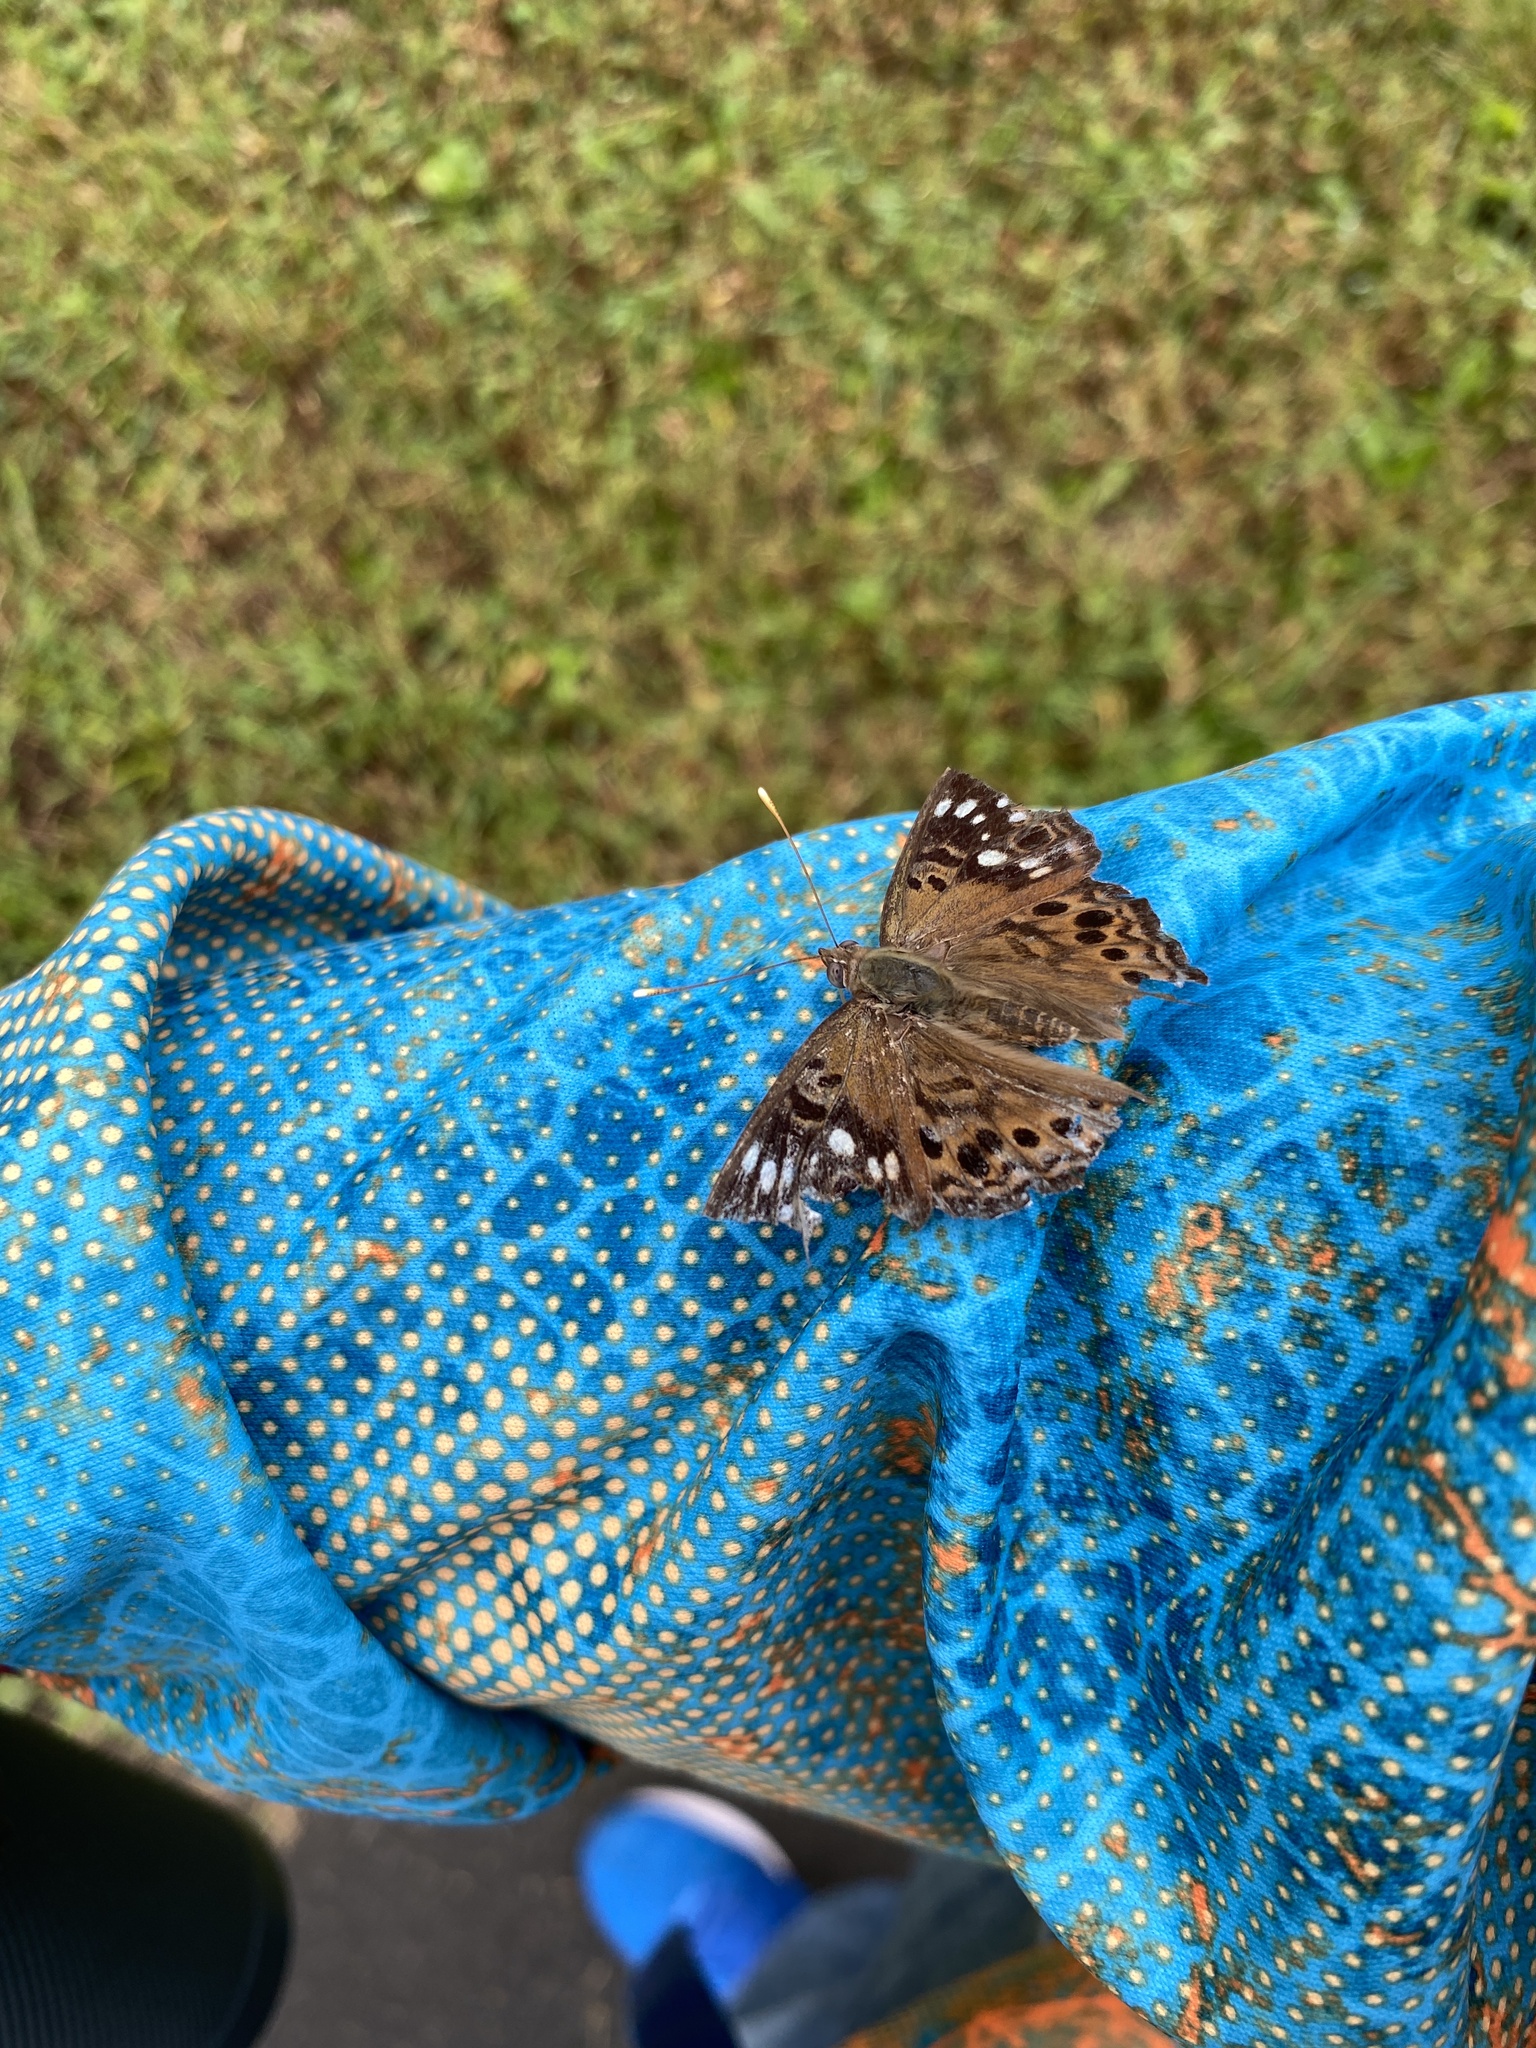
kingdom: Animalia
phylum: Arthropoda
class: Insecta
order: Lepidoptera
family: Nymphalidae
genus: Asterocampa
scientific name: Asterocampa celtis
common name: Hackberry emperor
